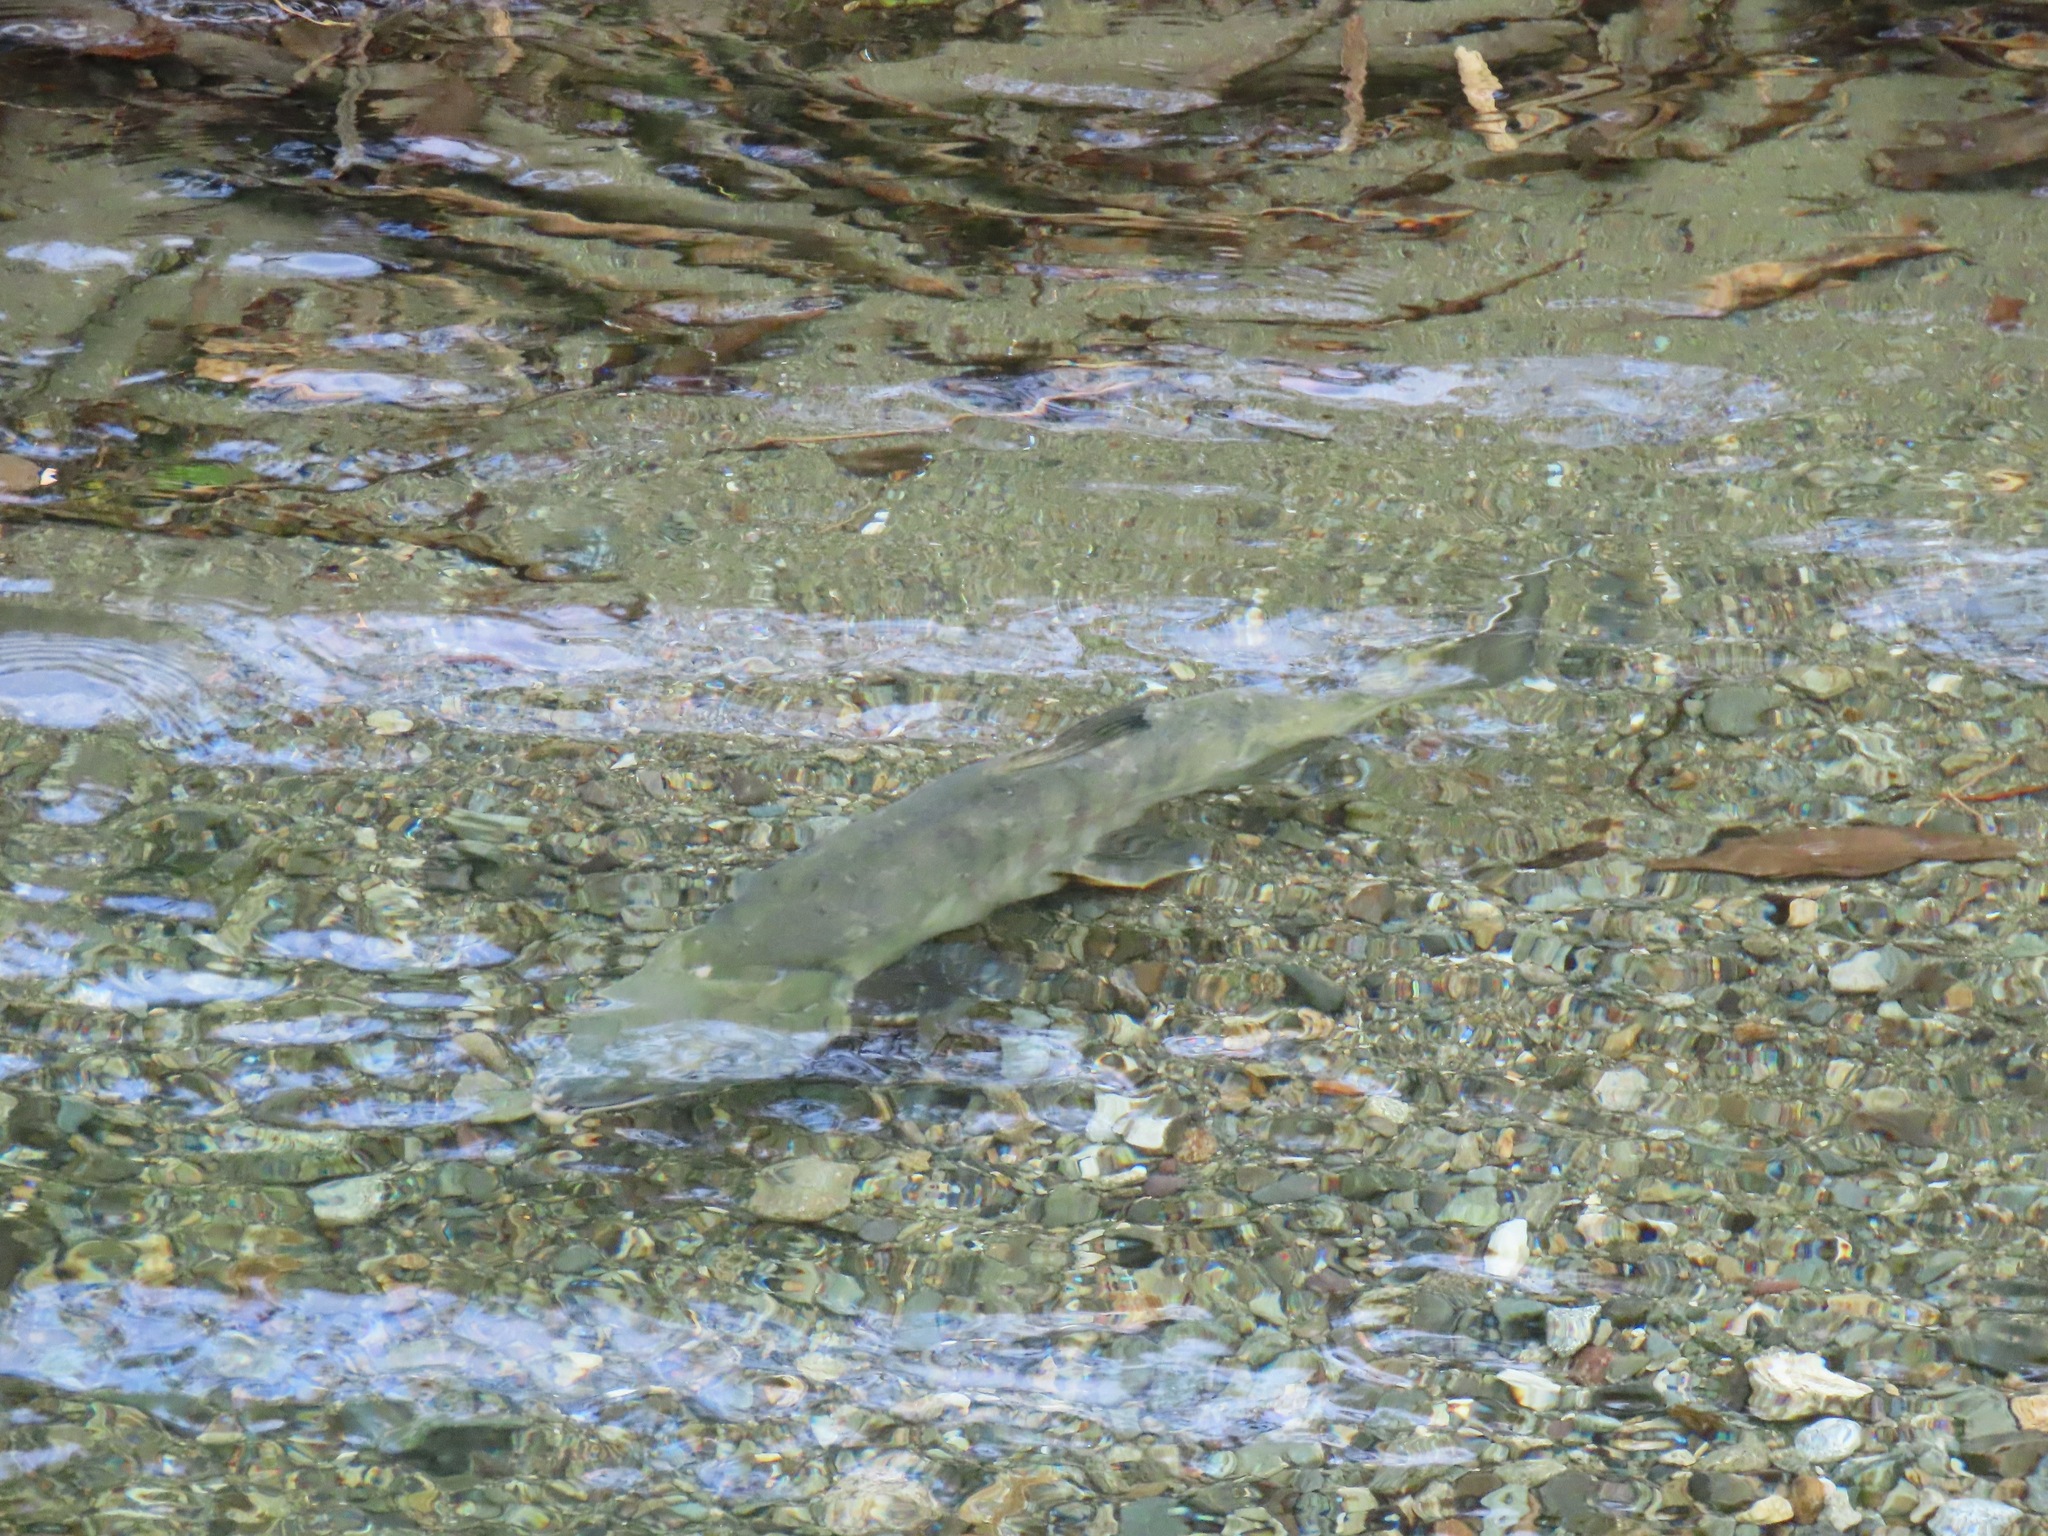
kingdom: Animalia
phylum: Chordata
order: Salmoniformes
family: Salmonidae
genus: Oncorhynchus
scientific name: Oncorhynchus keta
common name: Chum salmon
